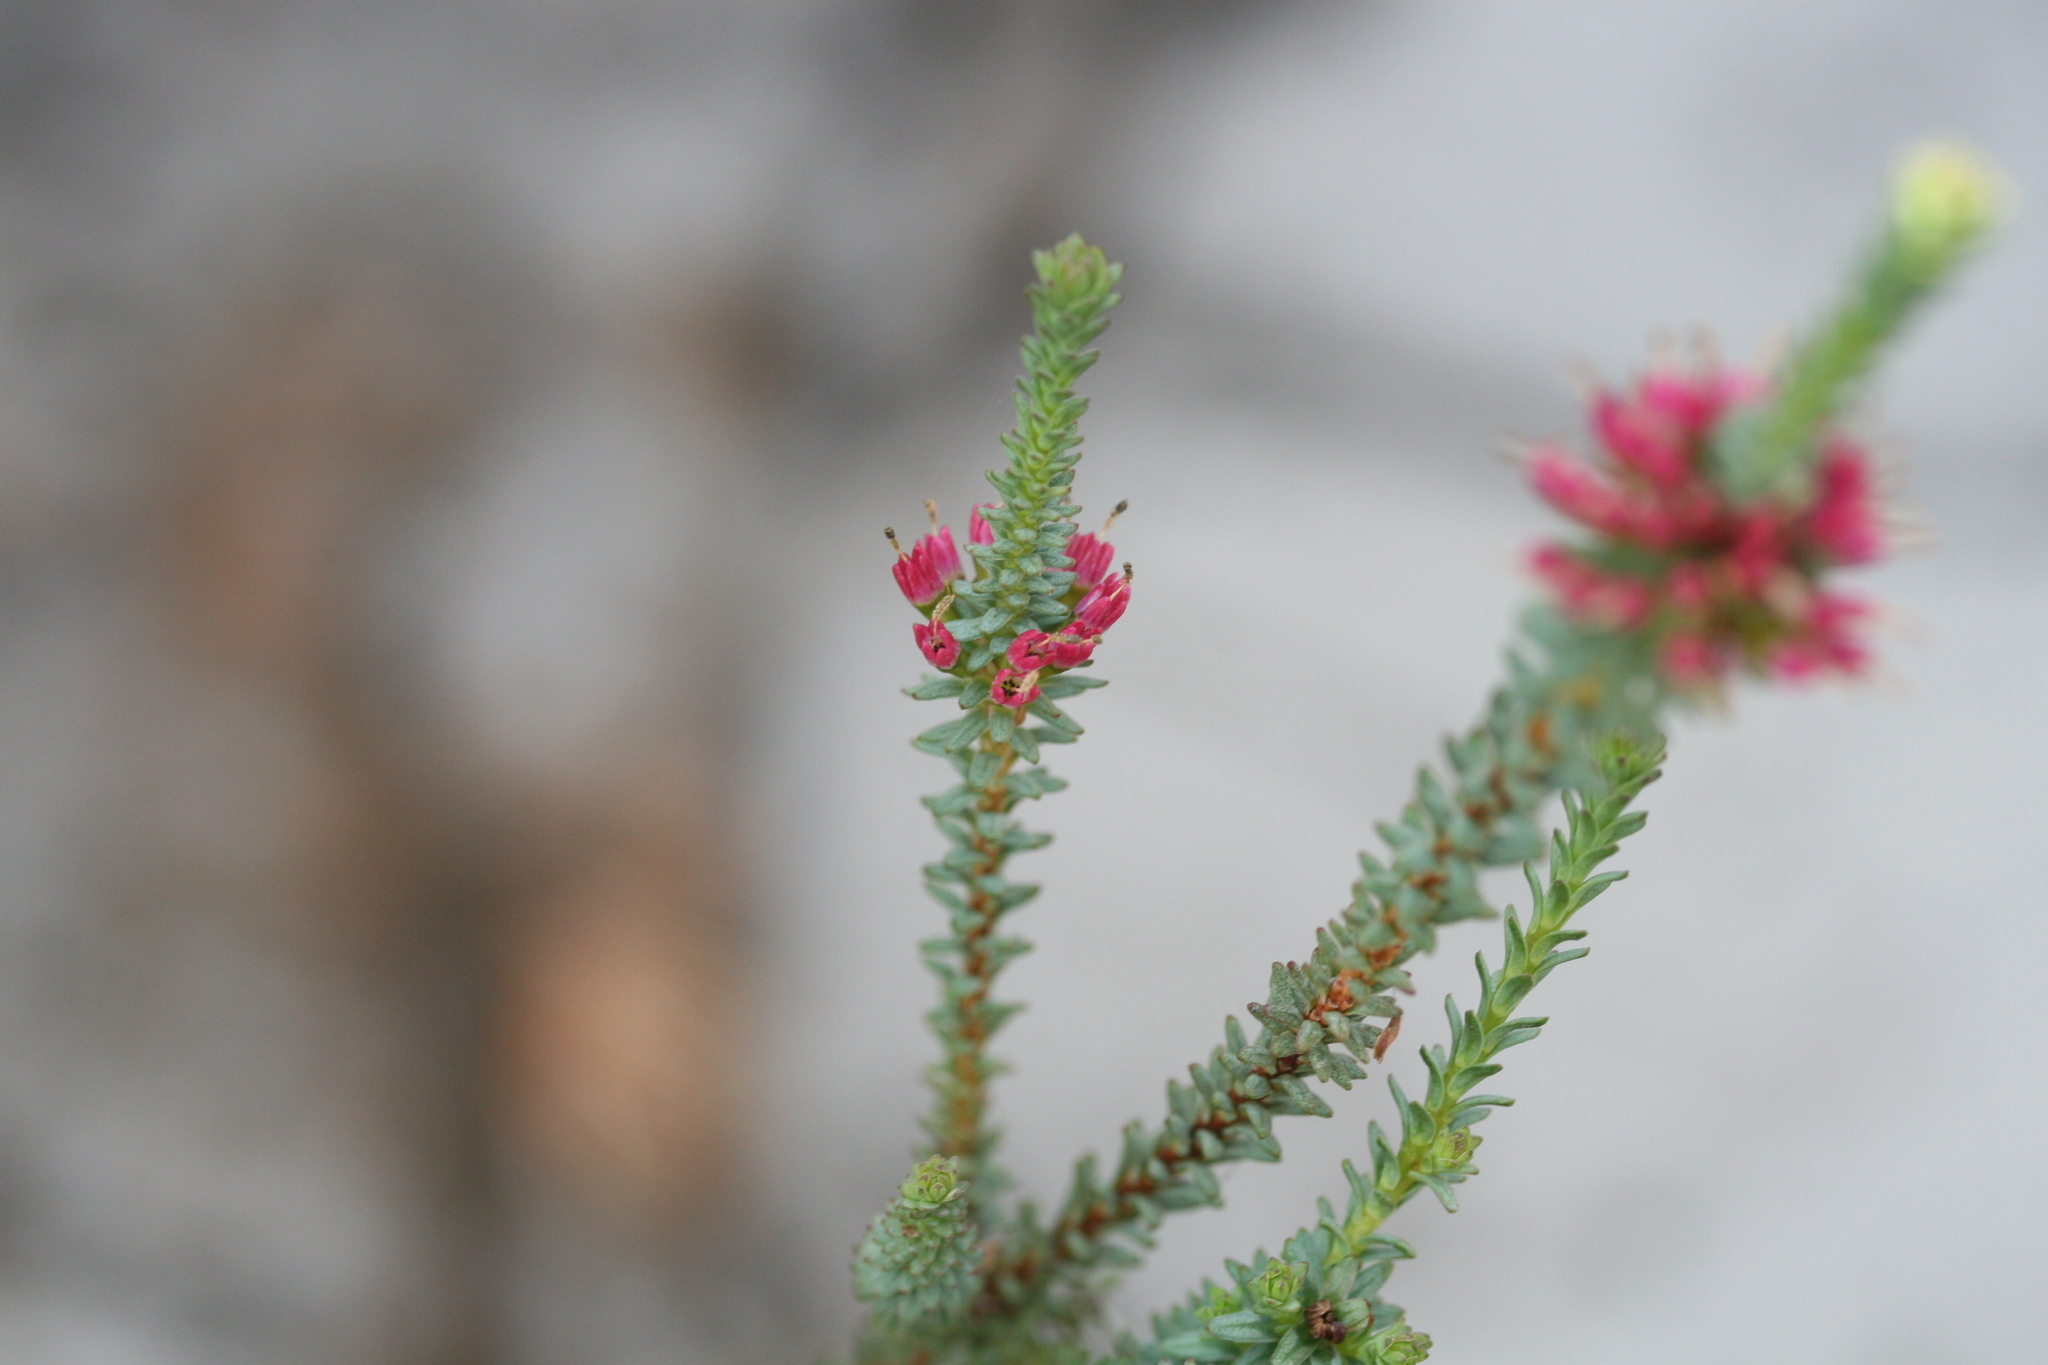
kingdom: Plantae
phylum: Tracheophyta
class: Magnoliopsida
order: Myrtales
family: Myrtaceae
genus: Darwinia
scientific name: Darwinia vestita
